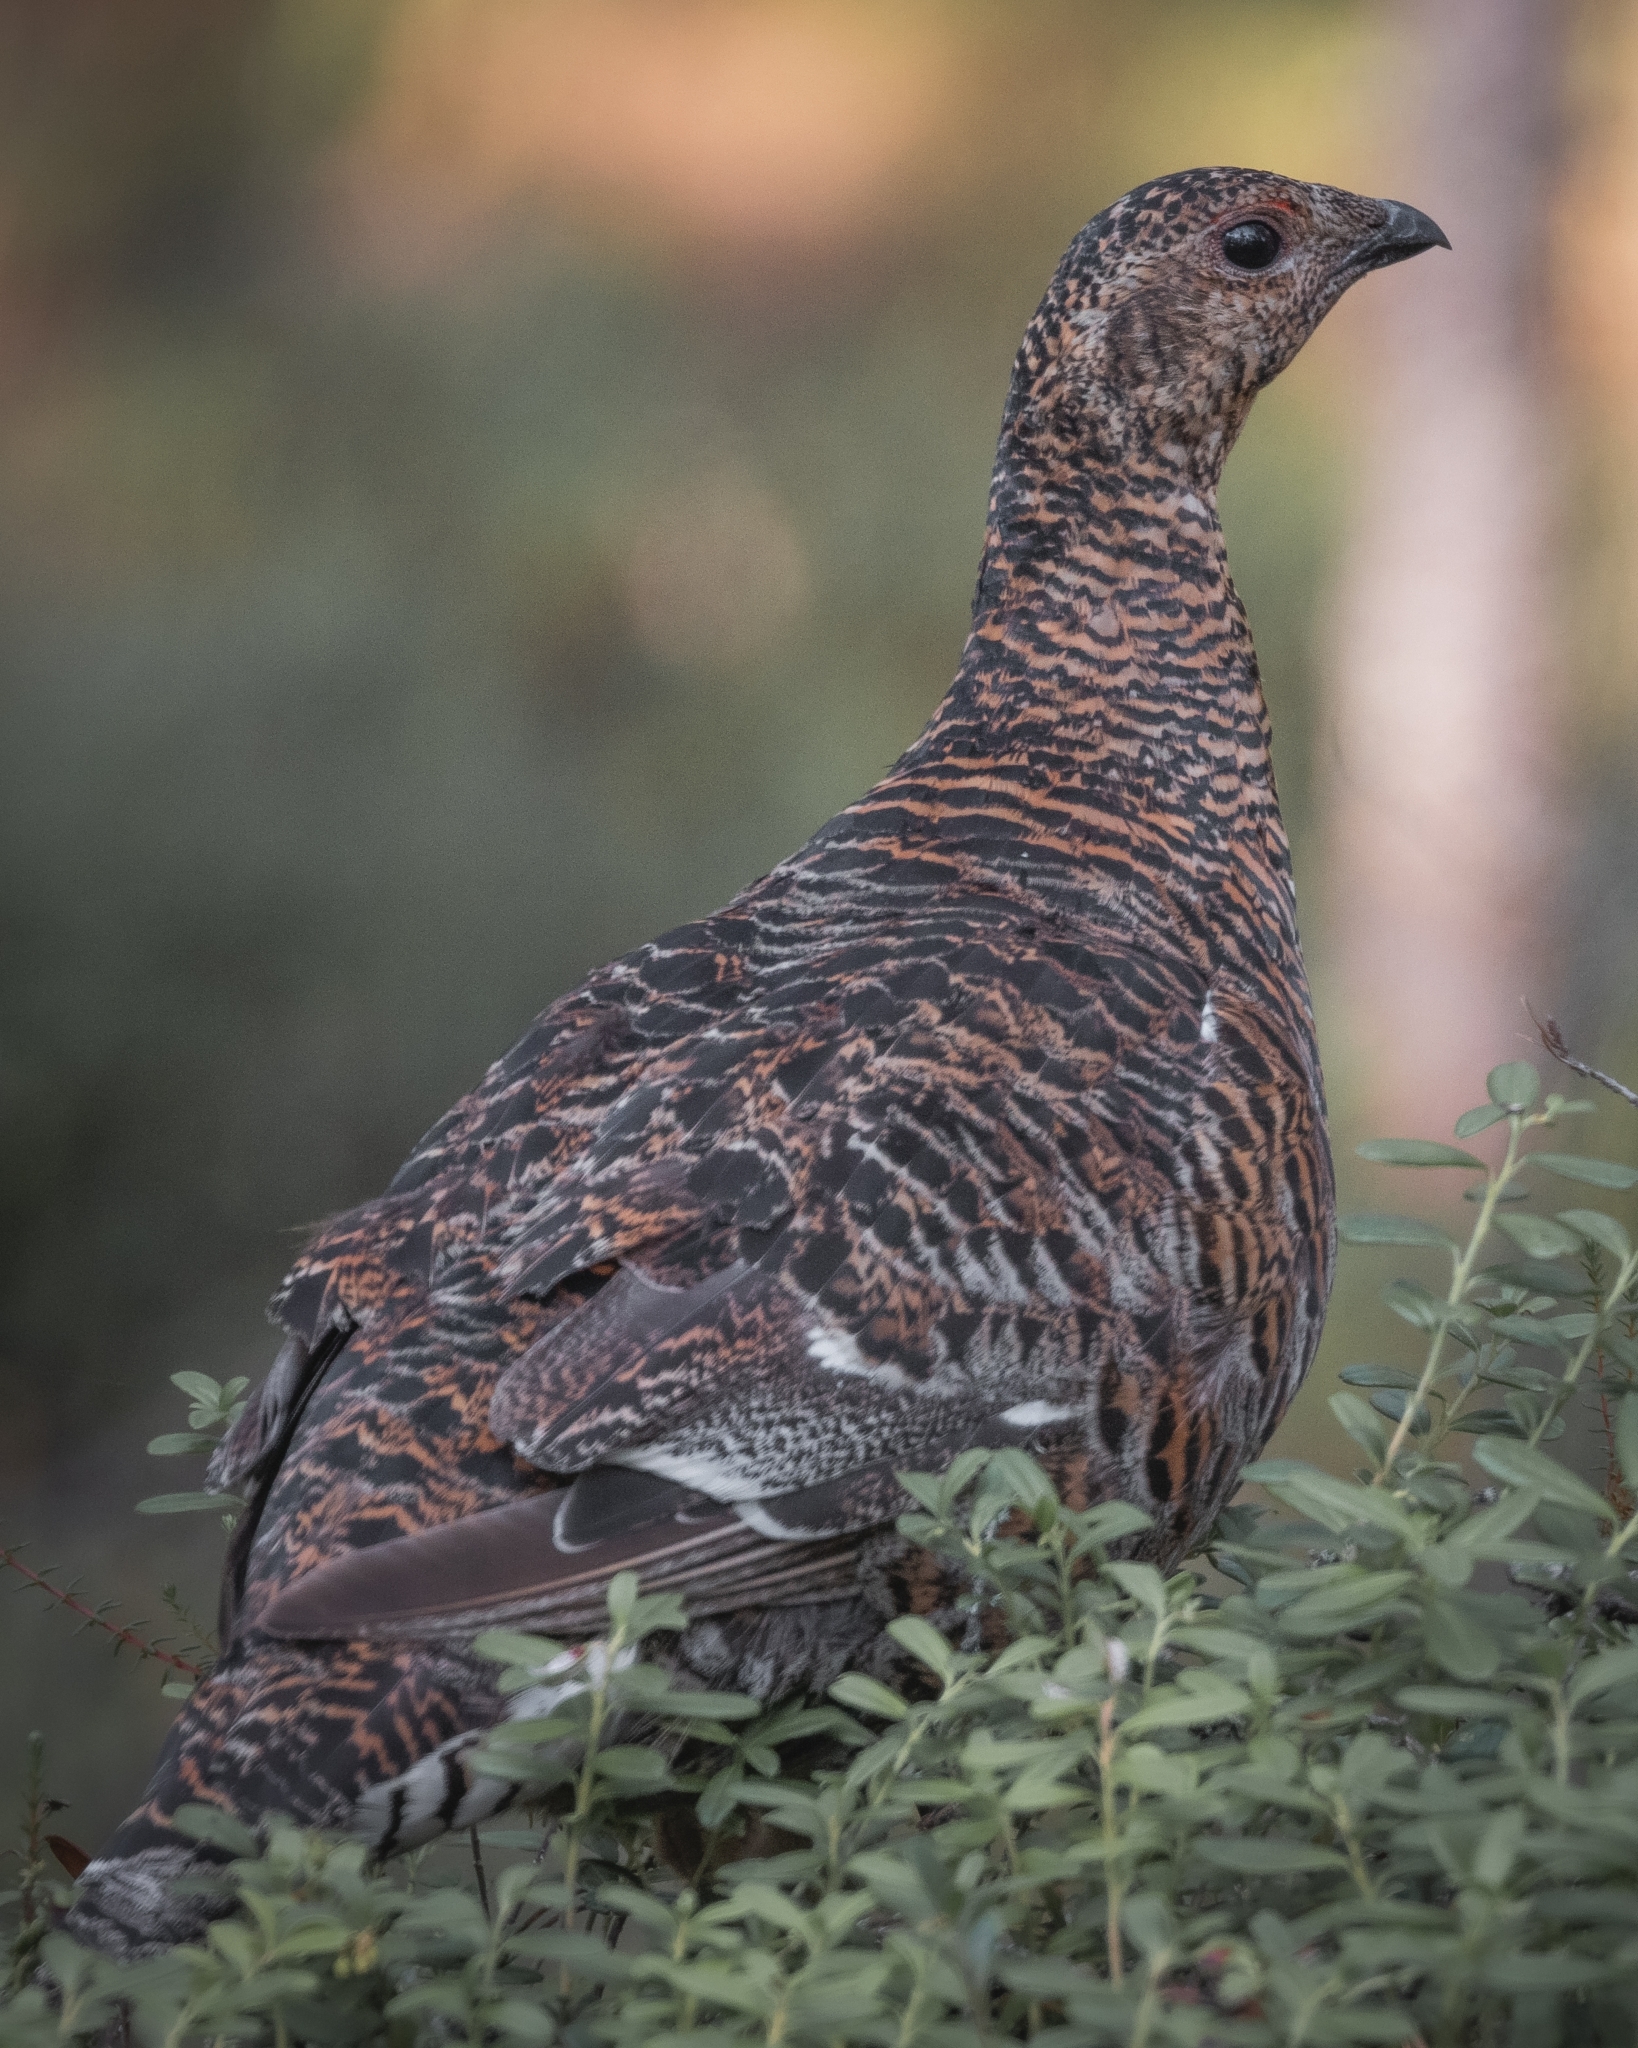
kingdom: Animalia
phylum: Chordata
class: Aves
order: Galliformes
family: Phasianidae
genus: Lyrurus
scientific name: Lyrurus tetrix
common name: Black grouse
